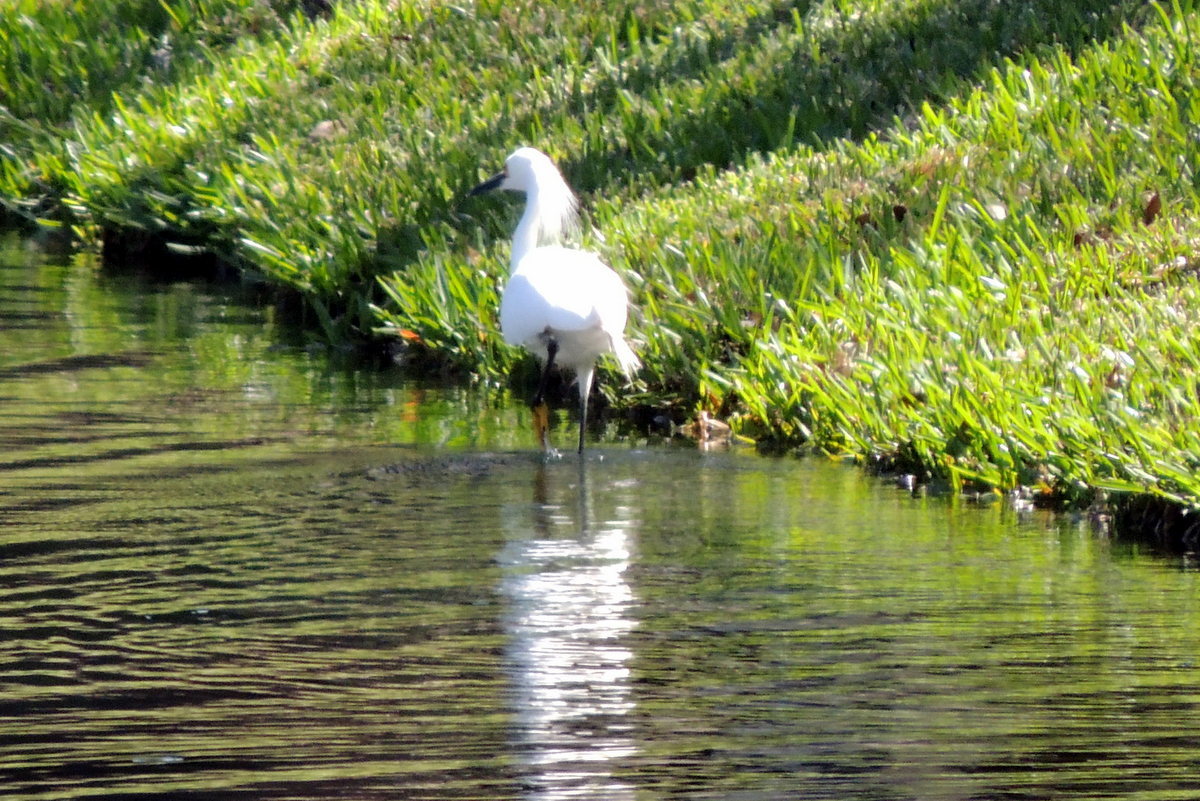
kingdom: Animalia
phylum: Chordata
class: Aves
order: Pelecaniformes
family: Ardeidae
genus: Egretta
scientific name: Egretta thula
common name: Snowy egret
